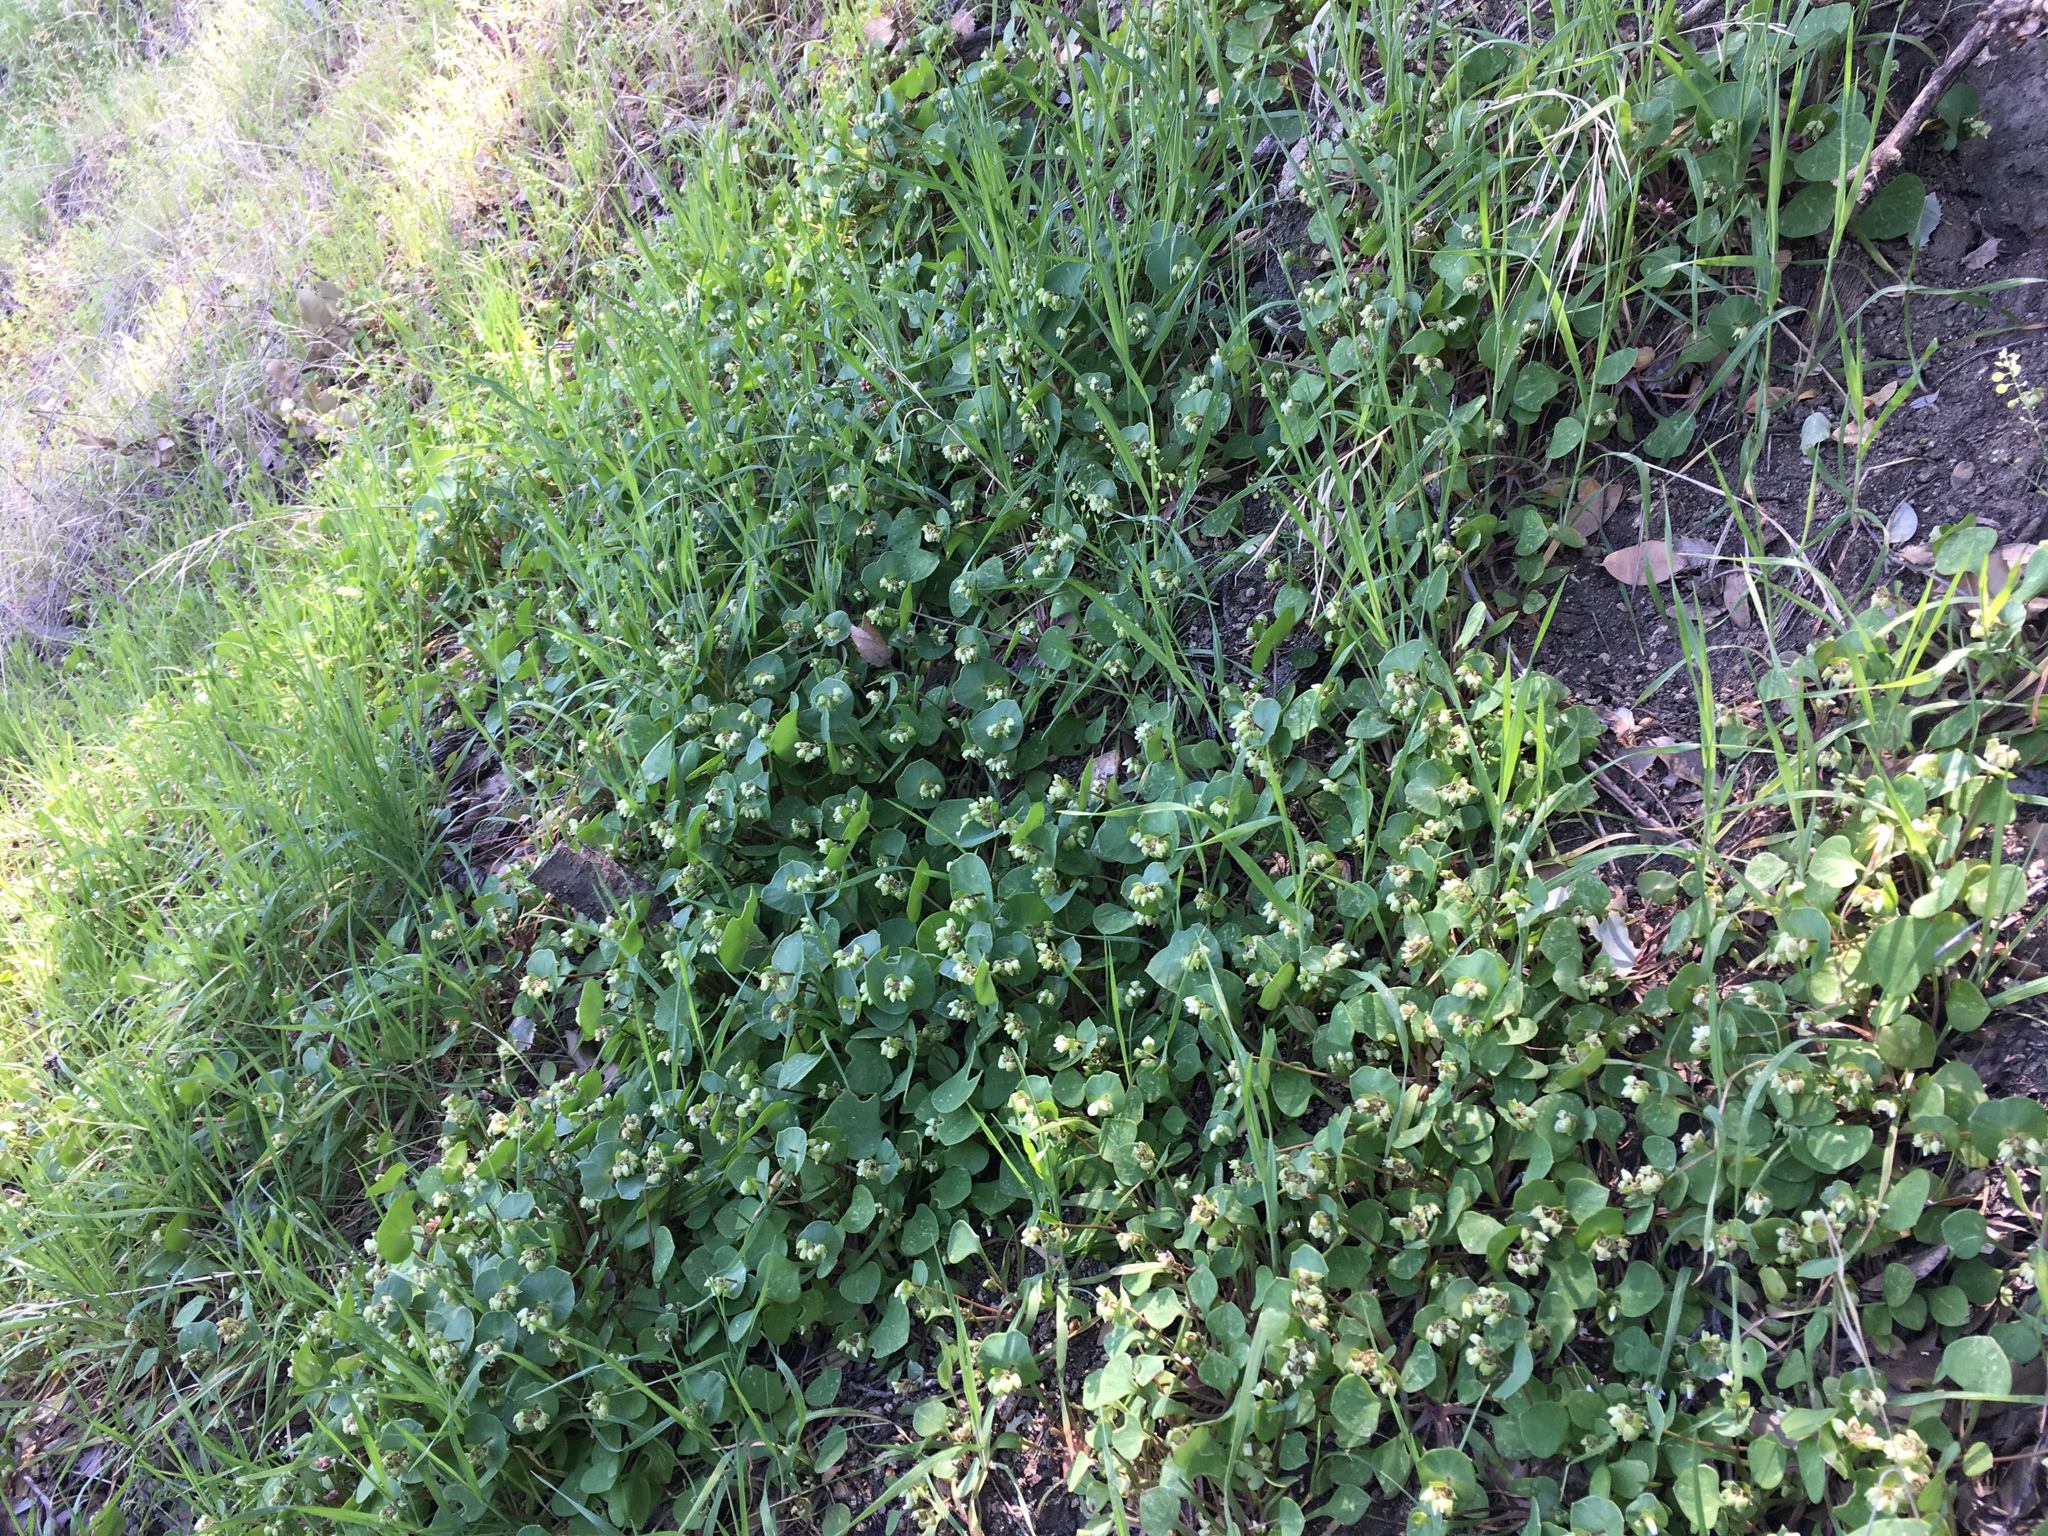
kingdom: Plantae
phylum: Tracheophyta
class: Magnoliopsida
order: Caryophyllales
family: Montiaceae
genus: Claytonia
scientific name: Claytonia perfoliata
